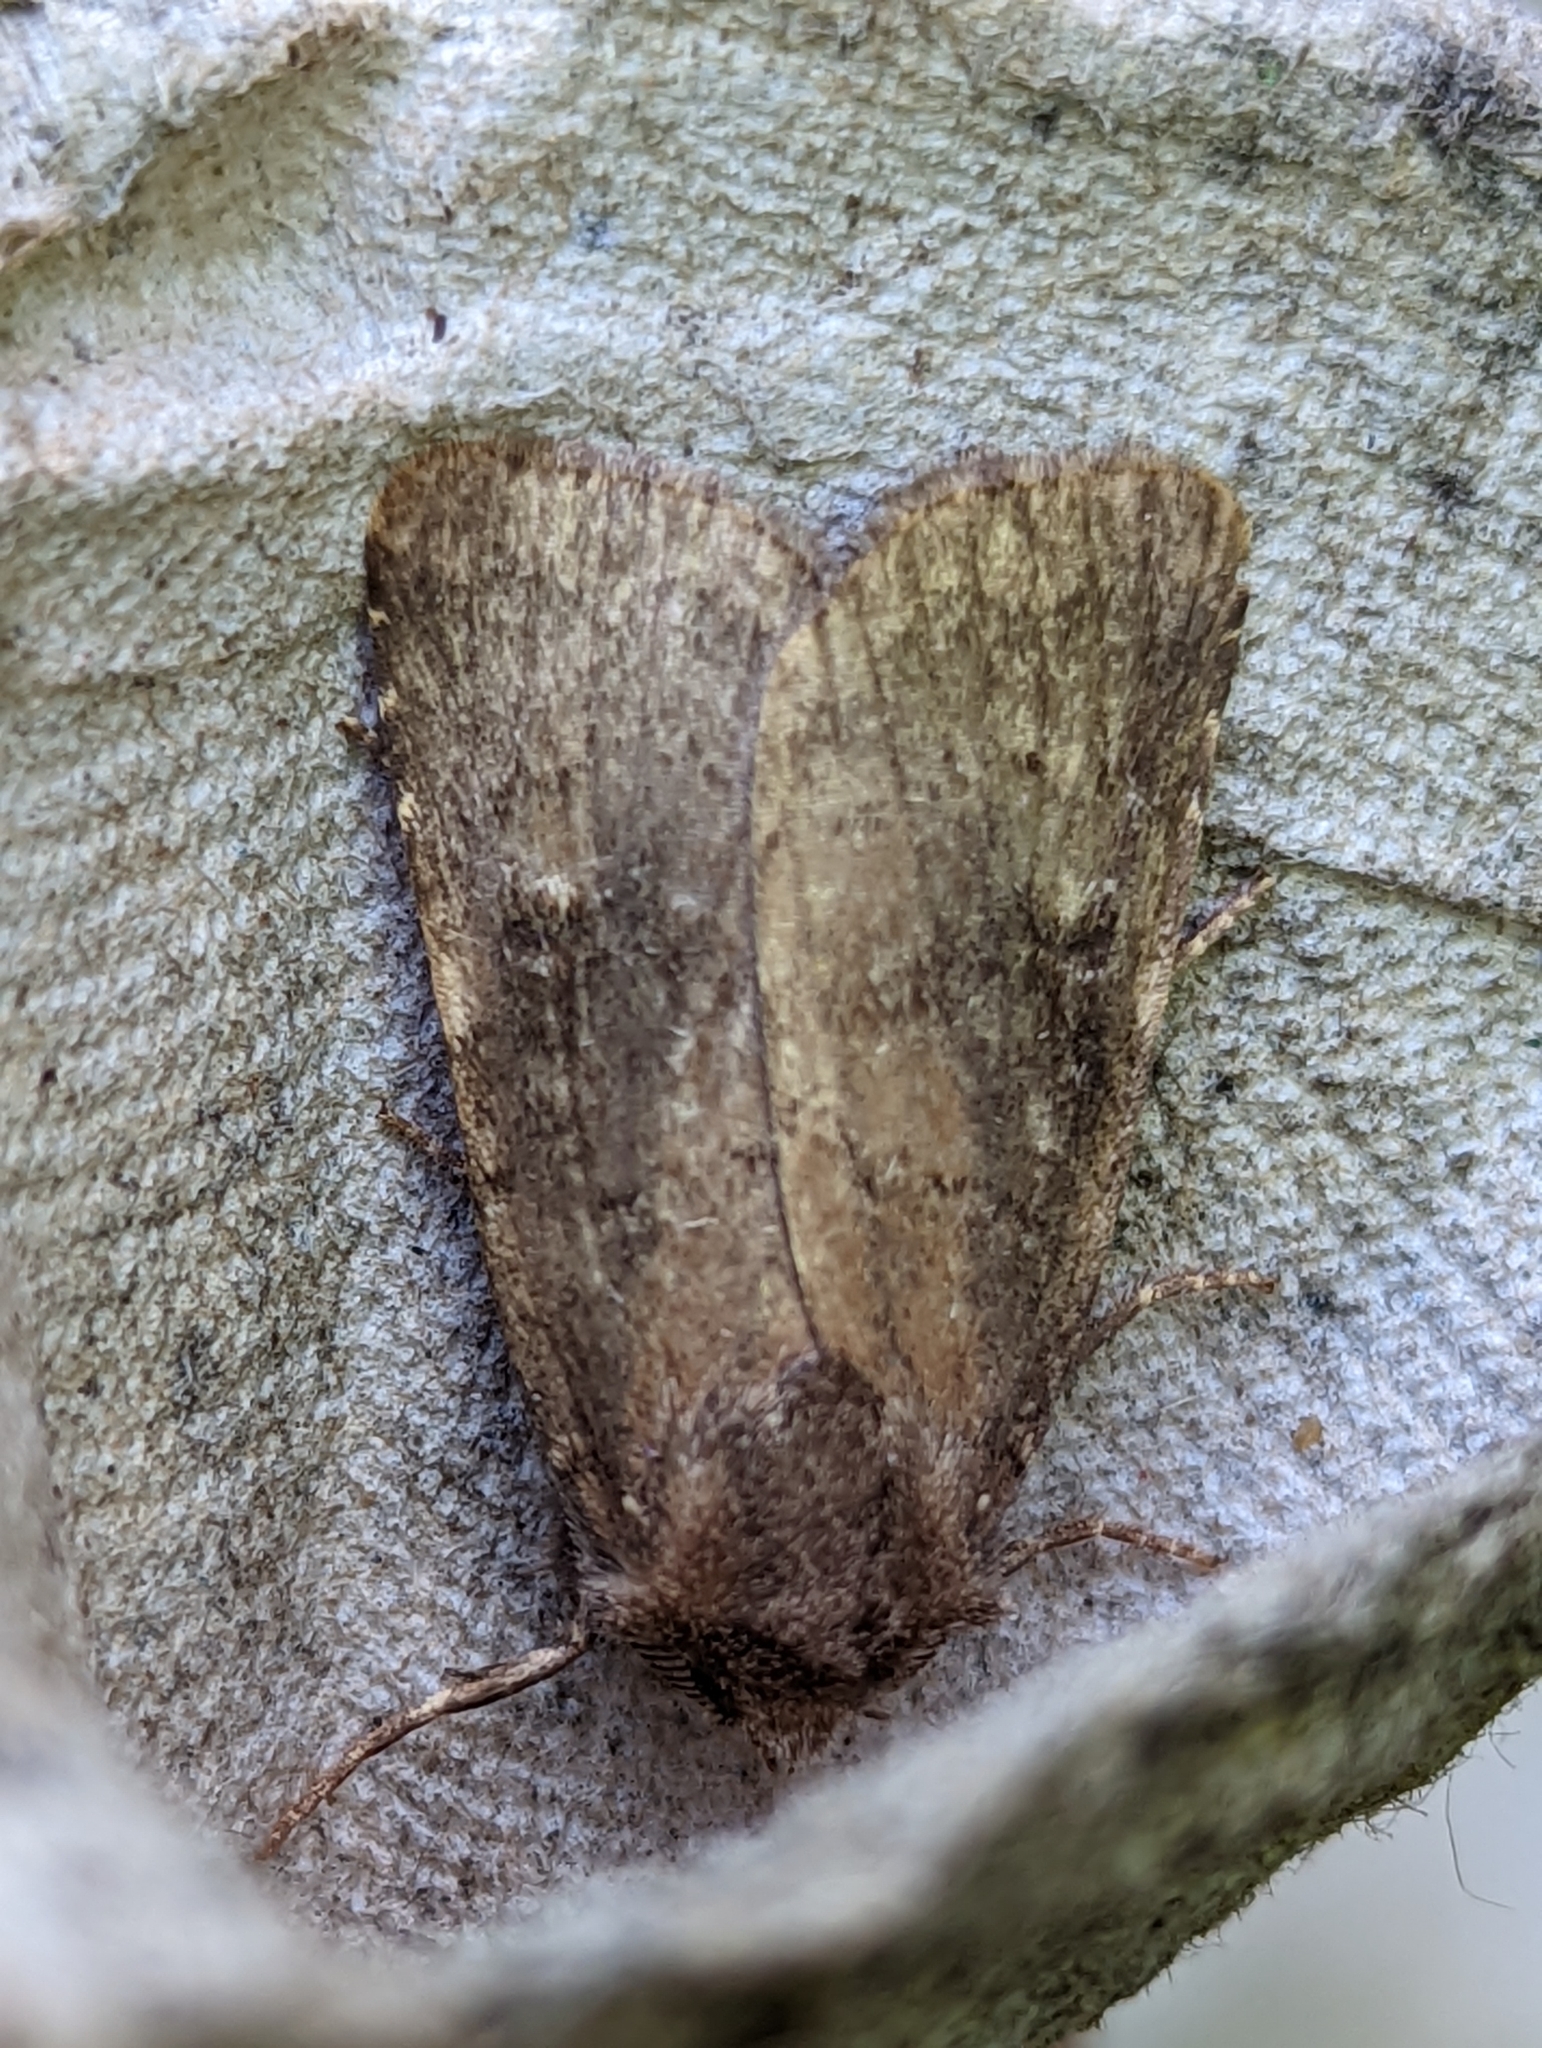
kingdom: Animalia
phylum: Arthropoda
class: Insecta
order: Lepidoptera
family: Noctuidae
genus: Charanyca
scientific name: Charanyca ferruginea
